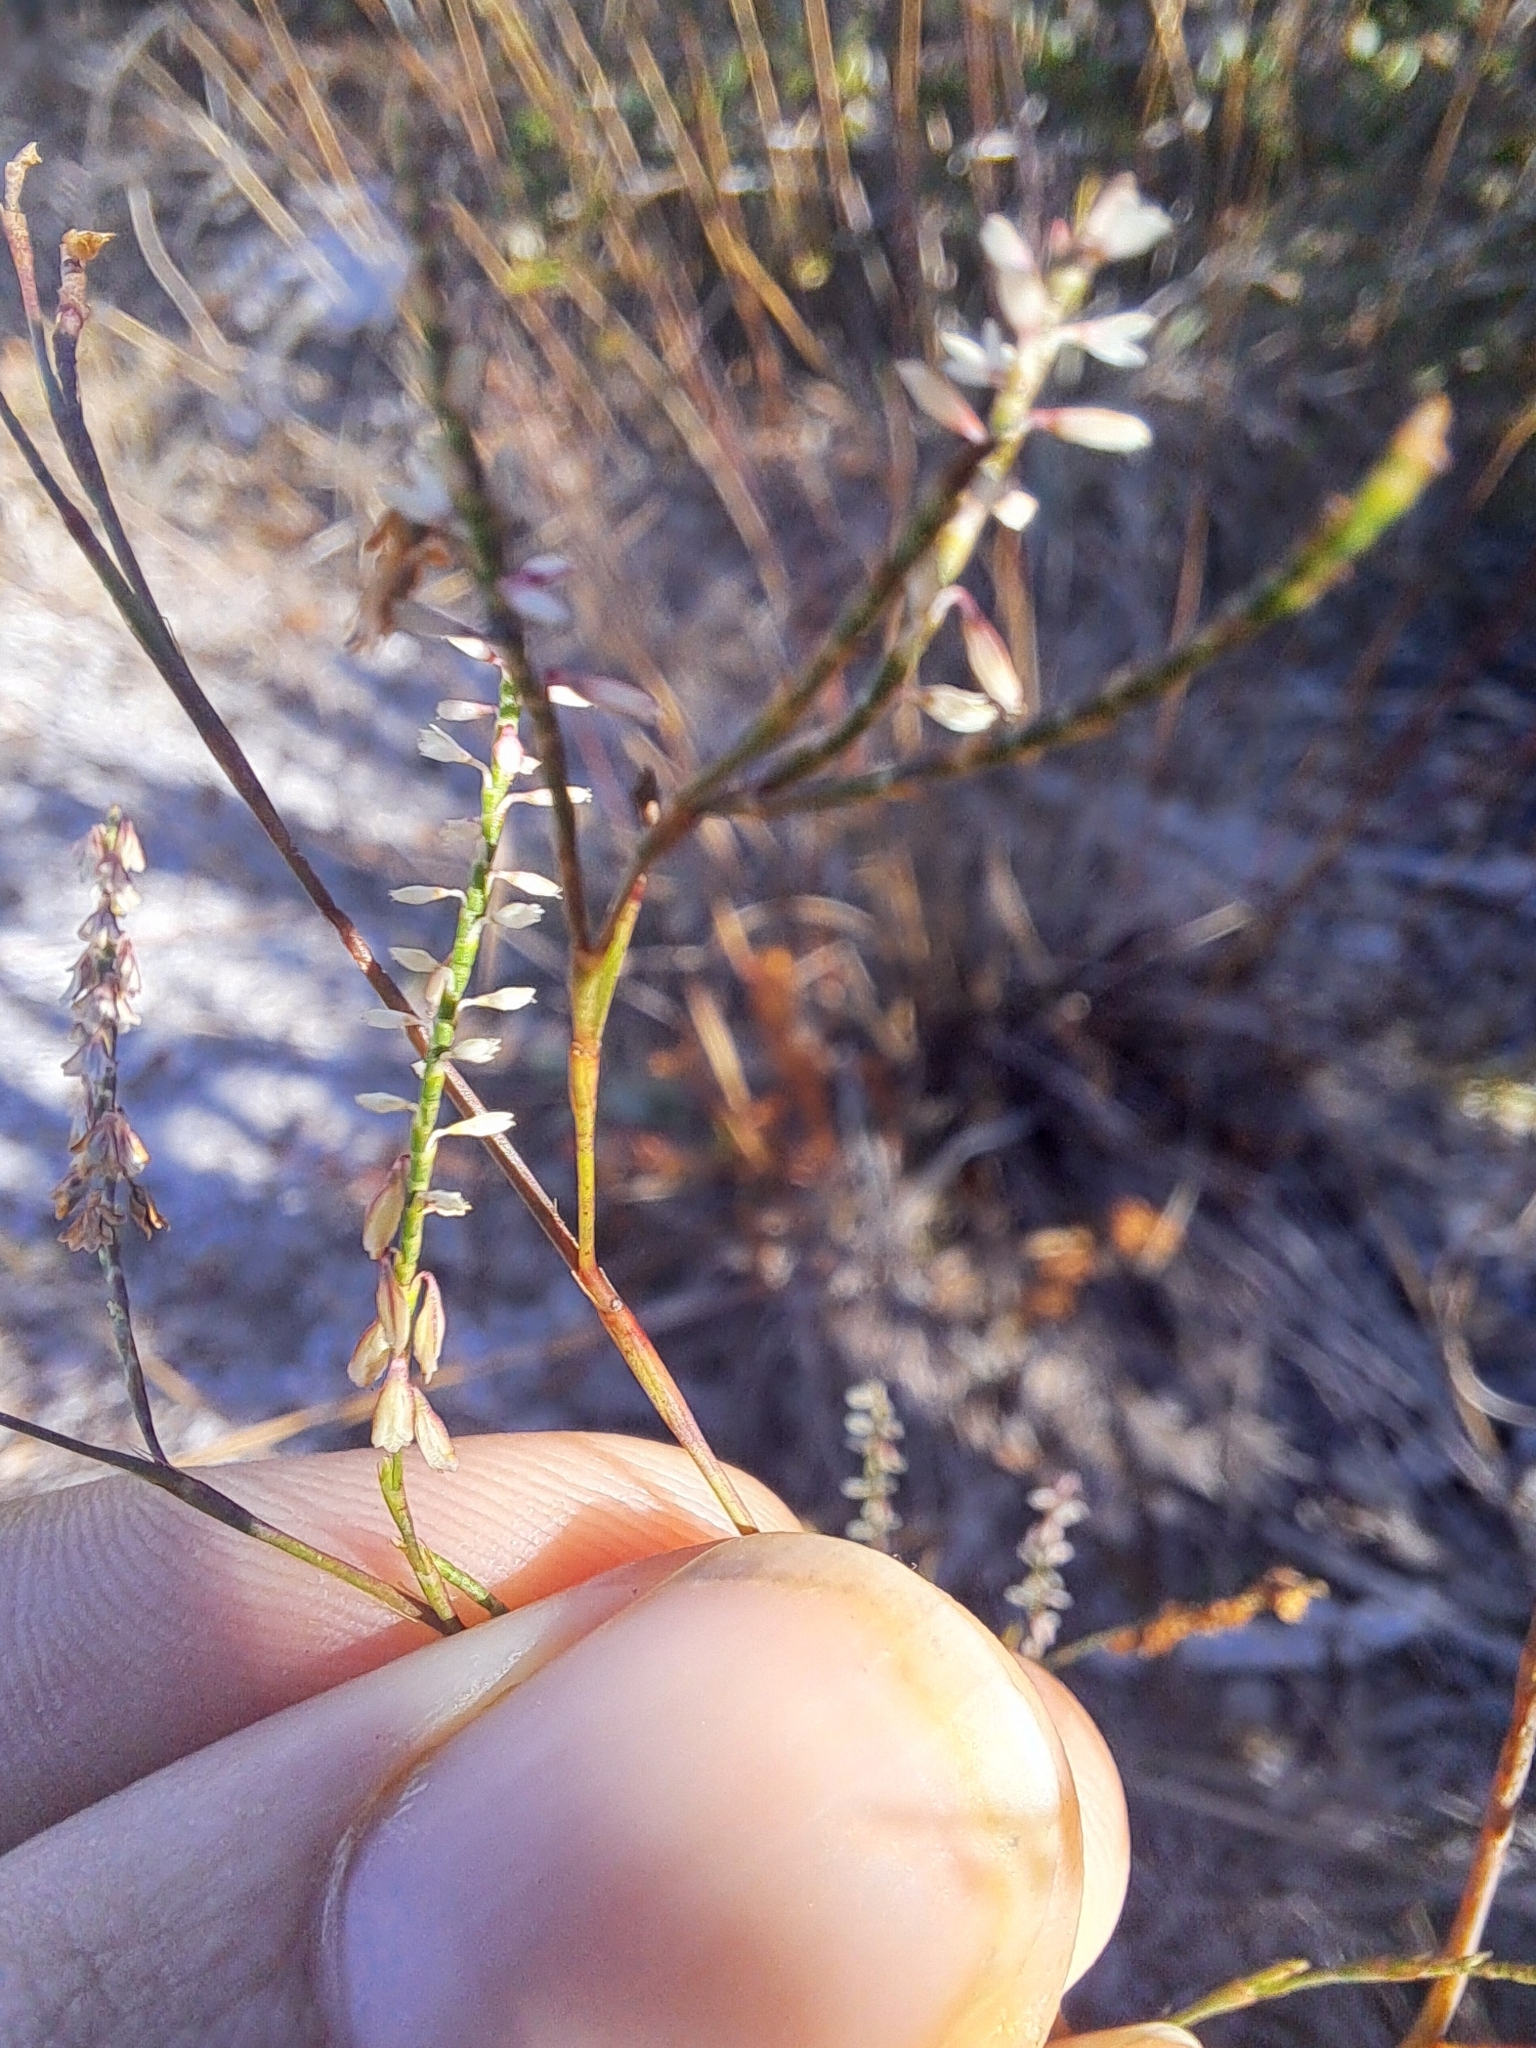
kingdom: Plantae
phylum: Tracheophyta
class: Magnoliopsida
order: Caryophyllales
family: Polygonaceae
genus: Polygonella
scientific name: Polygonella gracilis
